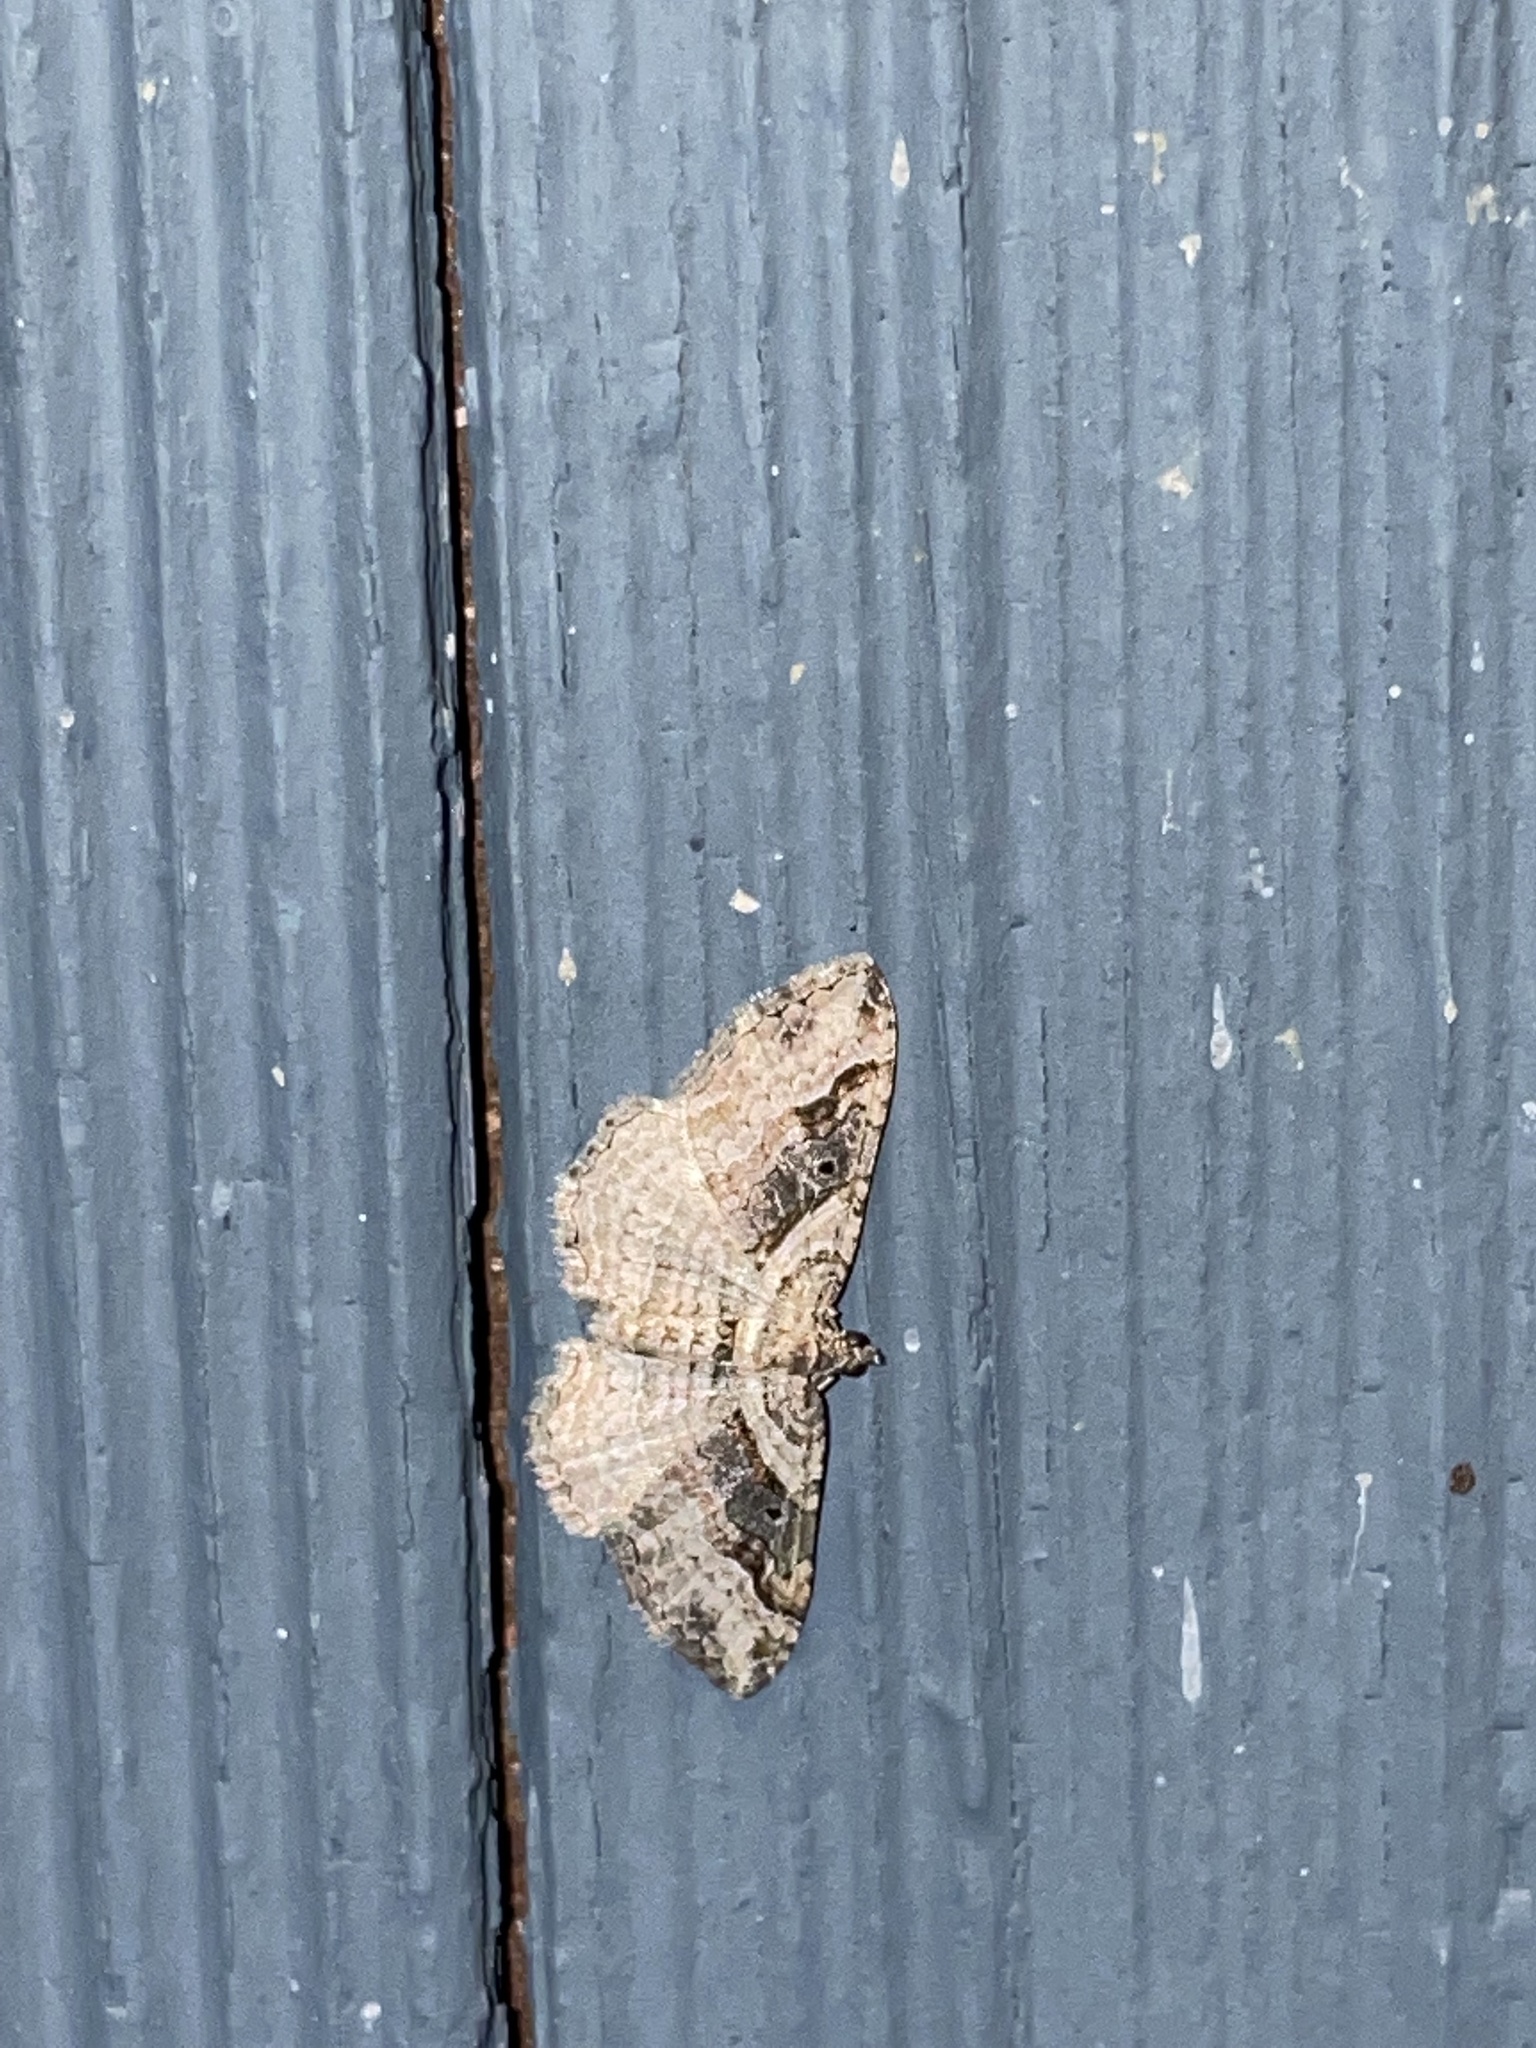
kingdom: Animalia
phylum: Arthropoda
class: Insecta
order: Lepidoptera
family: Geometridae
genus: Costaconvexa
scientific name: Costaconvexa centrostrigaria
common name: Bent-line carpet
